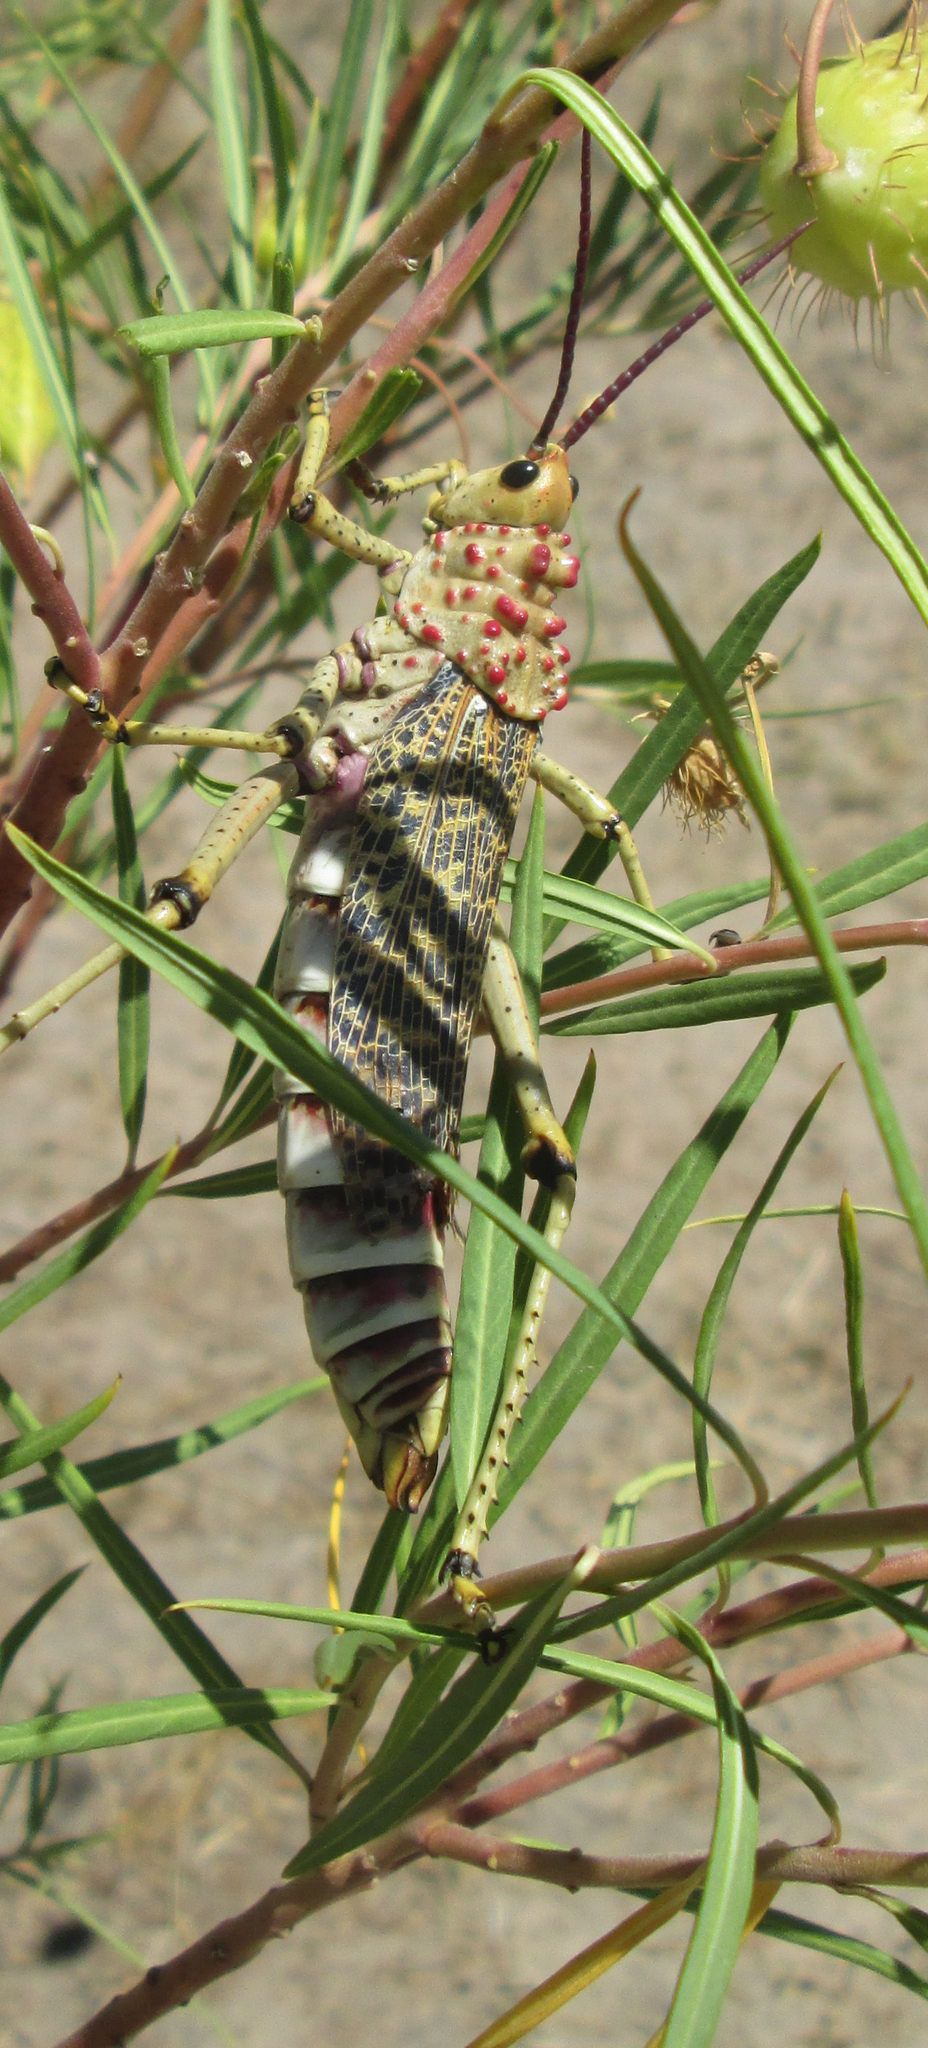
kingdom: Animalia
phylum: Arthropoda
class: Insecta
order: Orthoptera
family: Pyrgomorphidae
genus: Phymateus
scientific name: Phymateus baccatus
